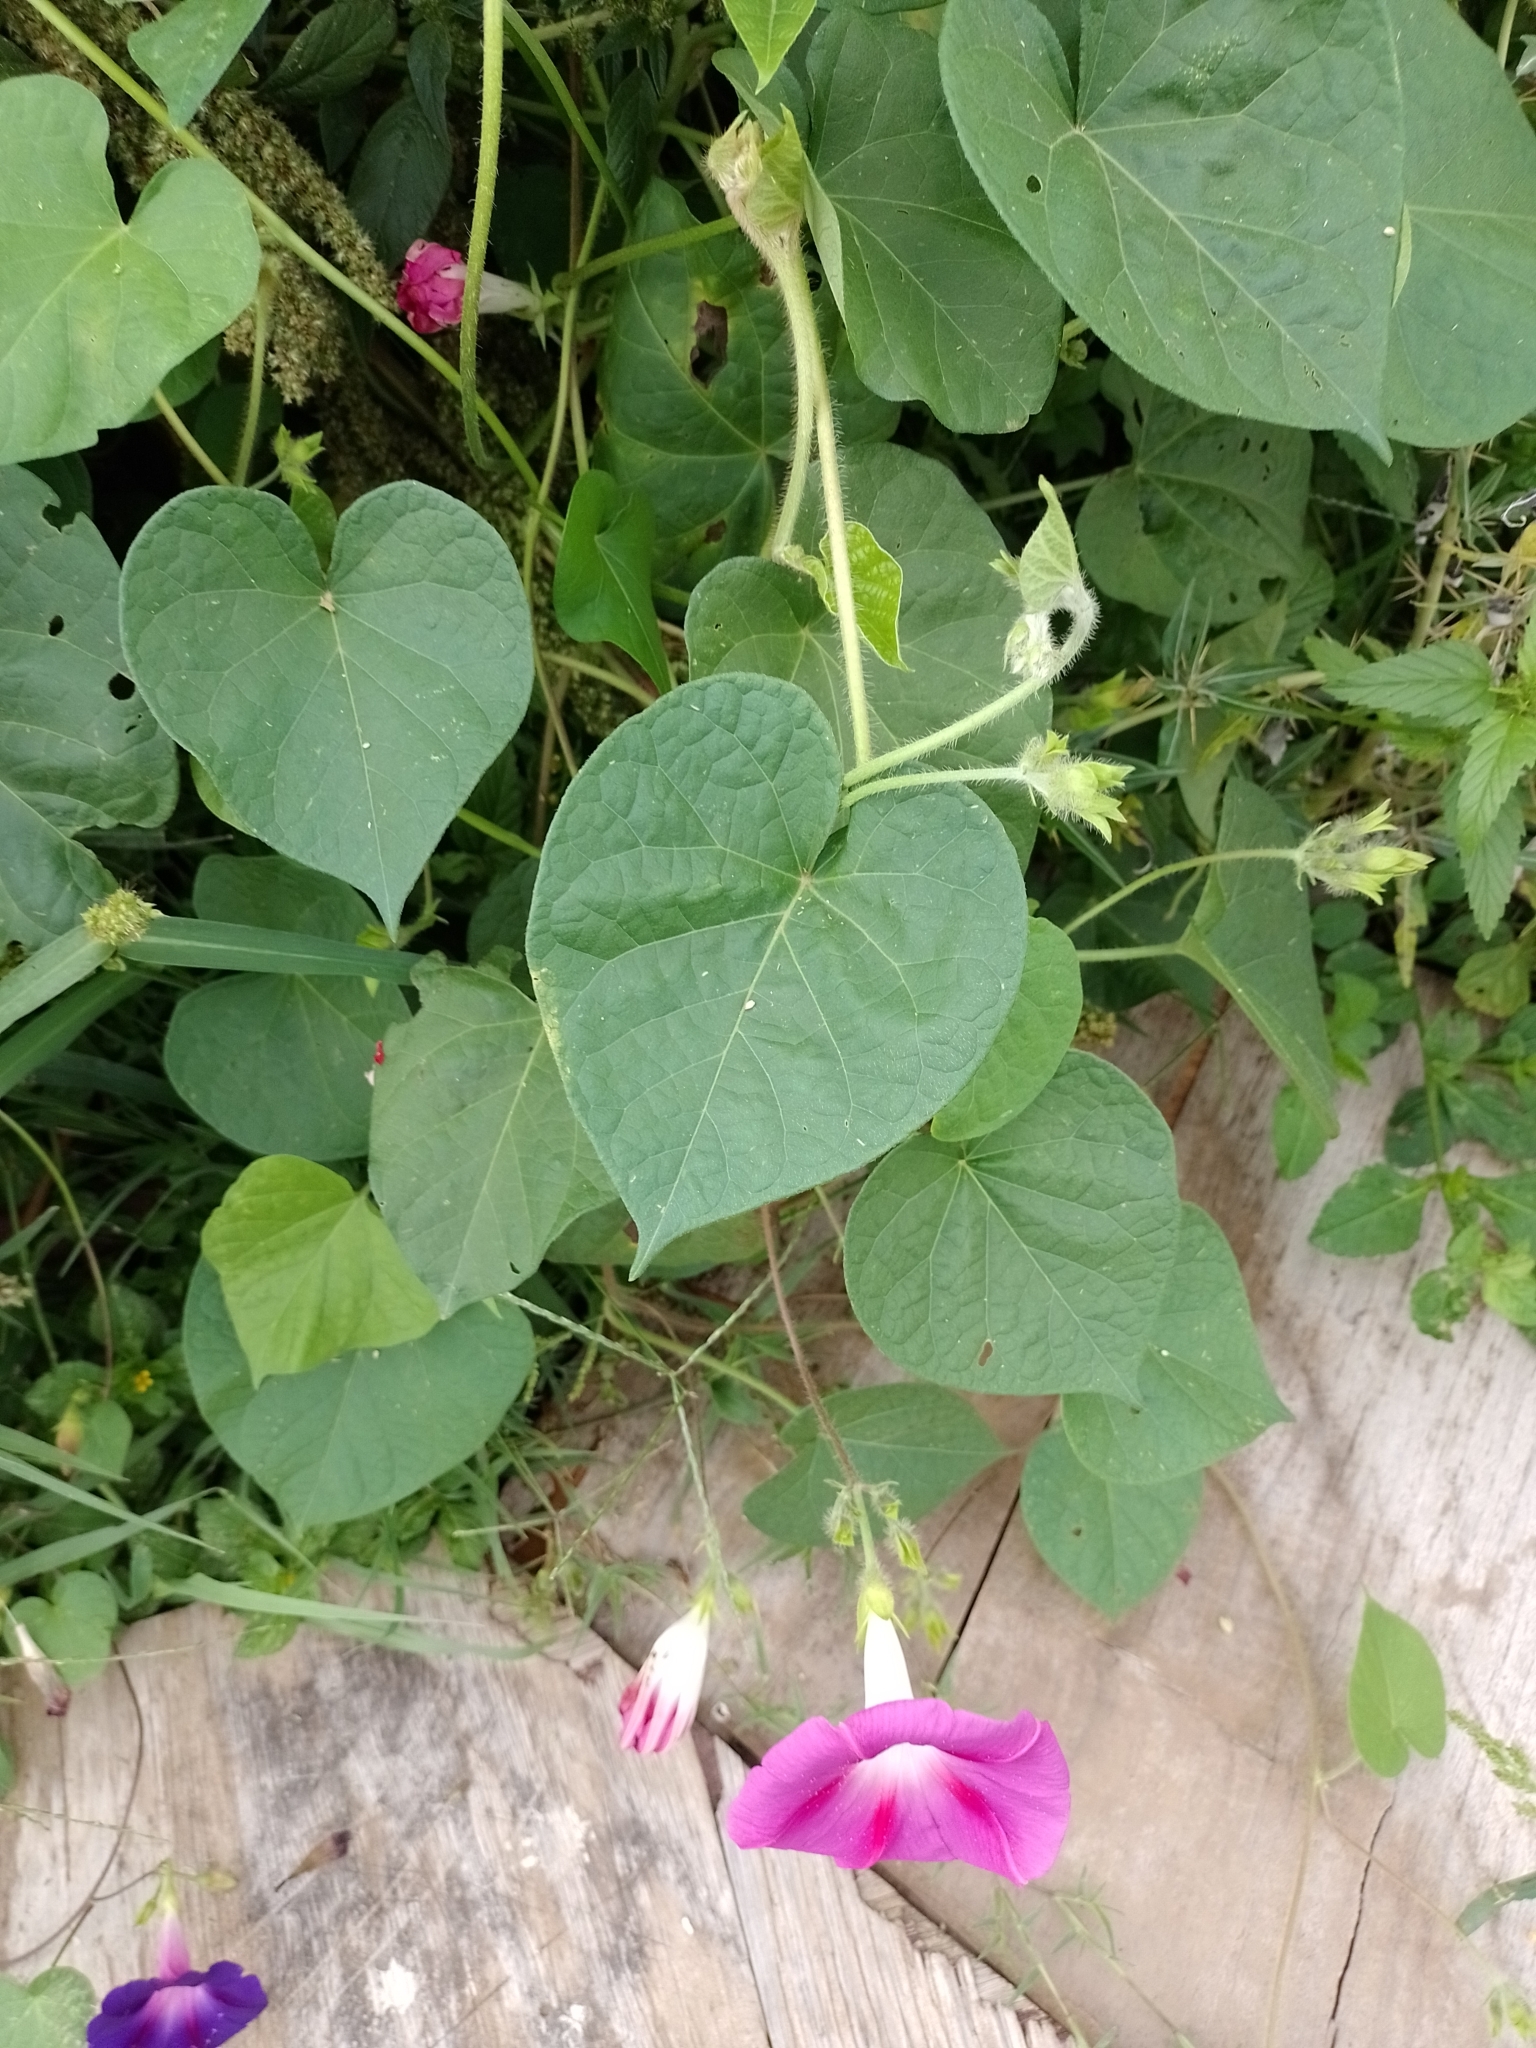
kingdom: Plantae
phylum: Tracheophyta
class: Magnoliopsida
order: Solanales
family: Convolvulaceae
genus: Ipomoea
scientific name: Ipomoea purpurea
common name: Common morning-glory
